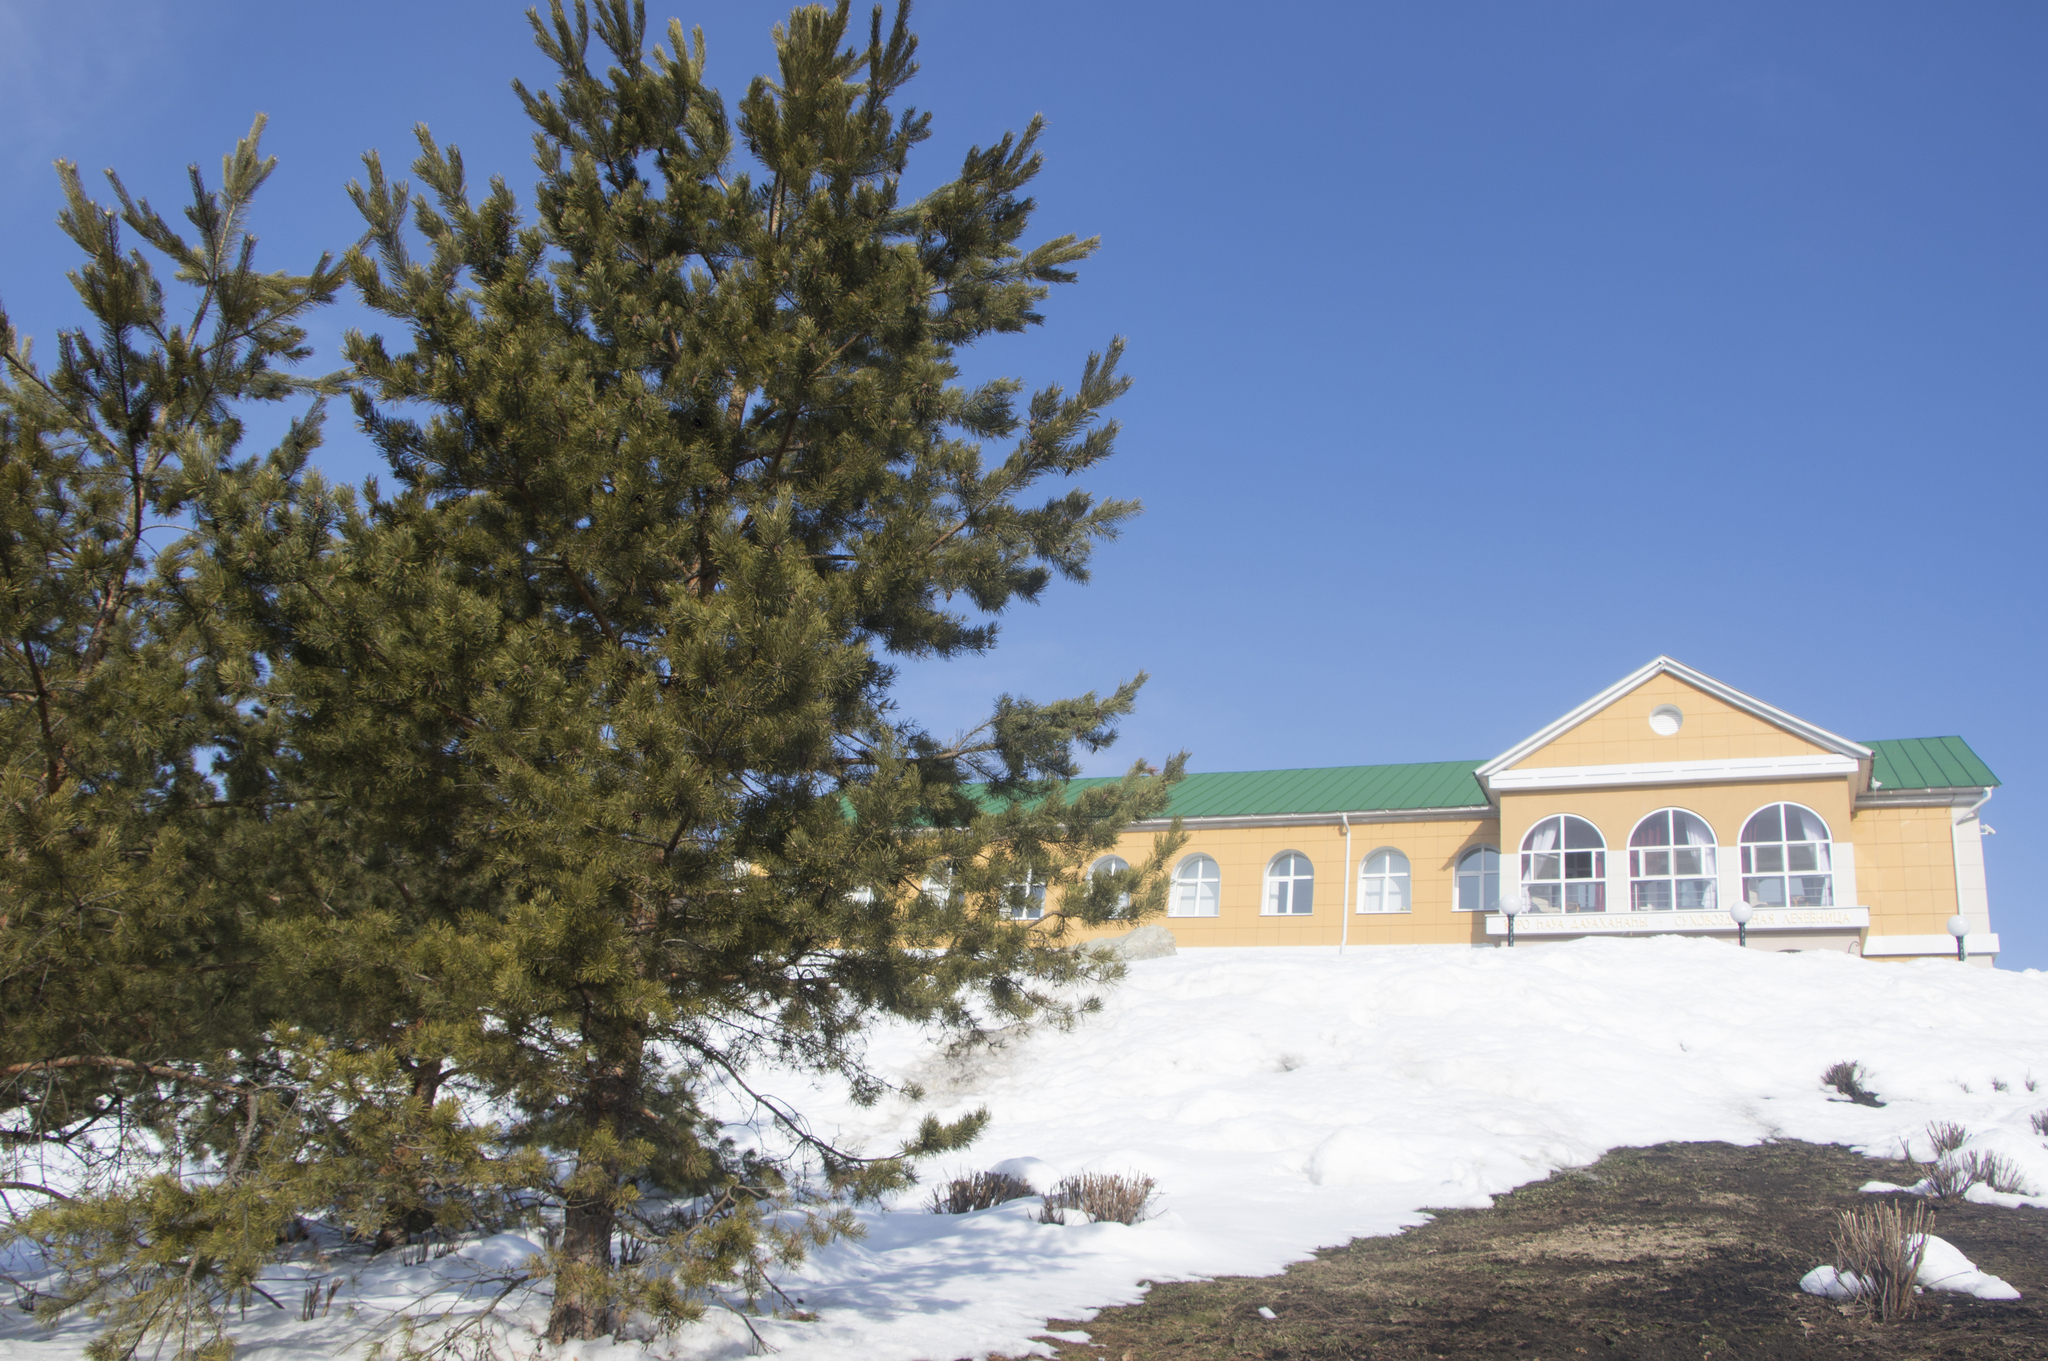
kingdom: Plantae
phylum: Tracheophyta
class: Pinopsida
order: Pinales
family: Pinaceae
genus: Pinus
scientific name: Pinus sylvestris
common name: Scots pine
